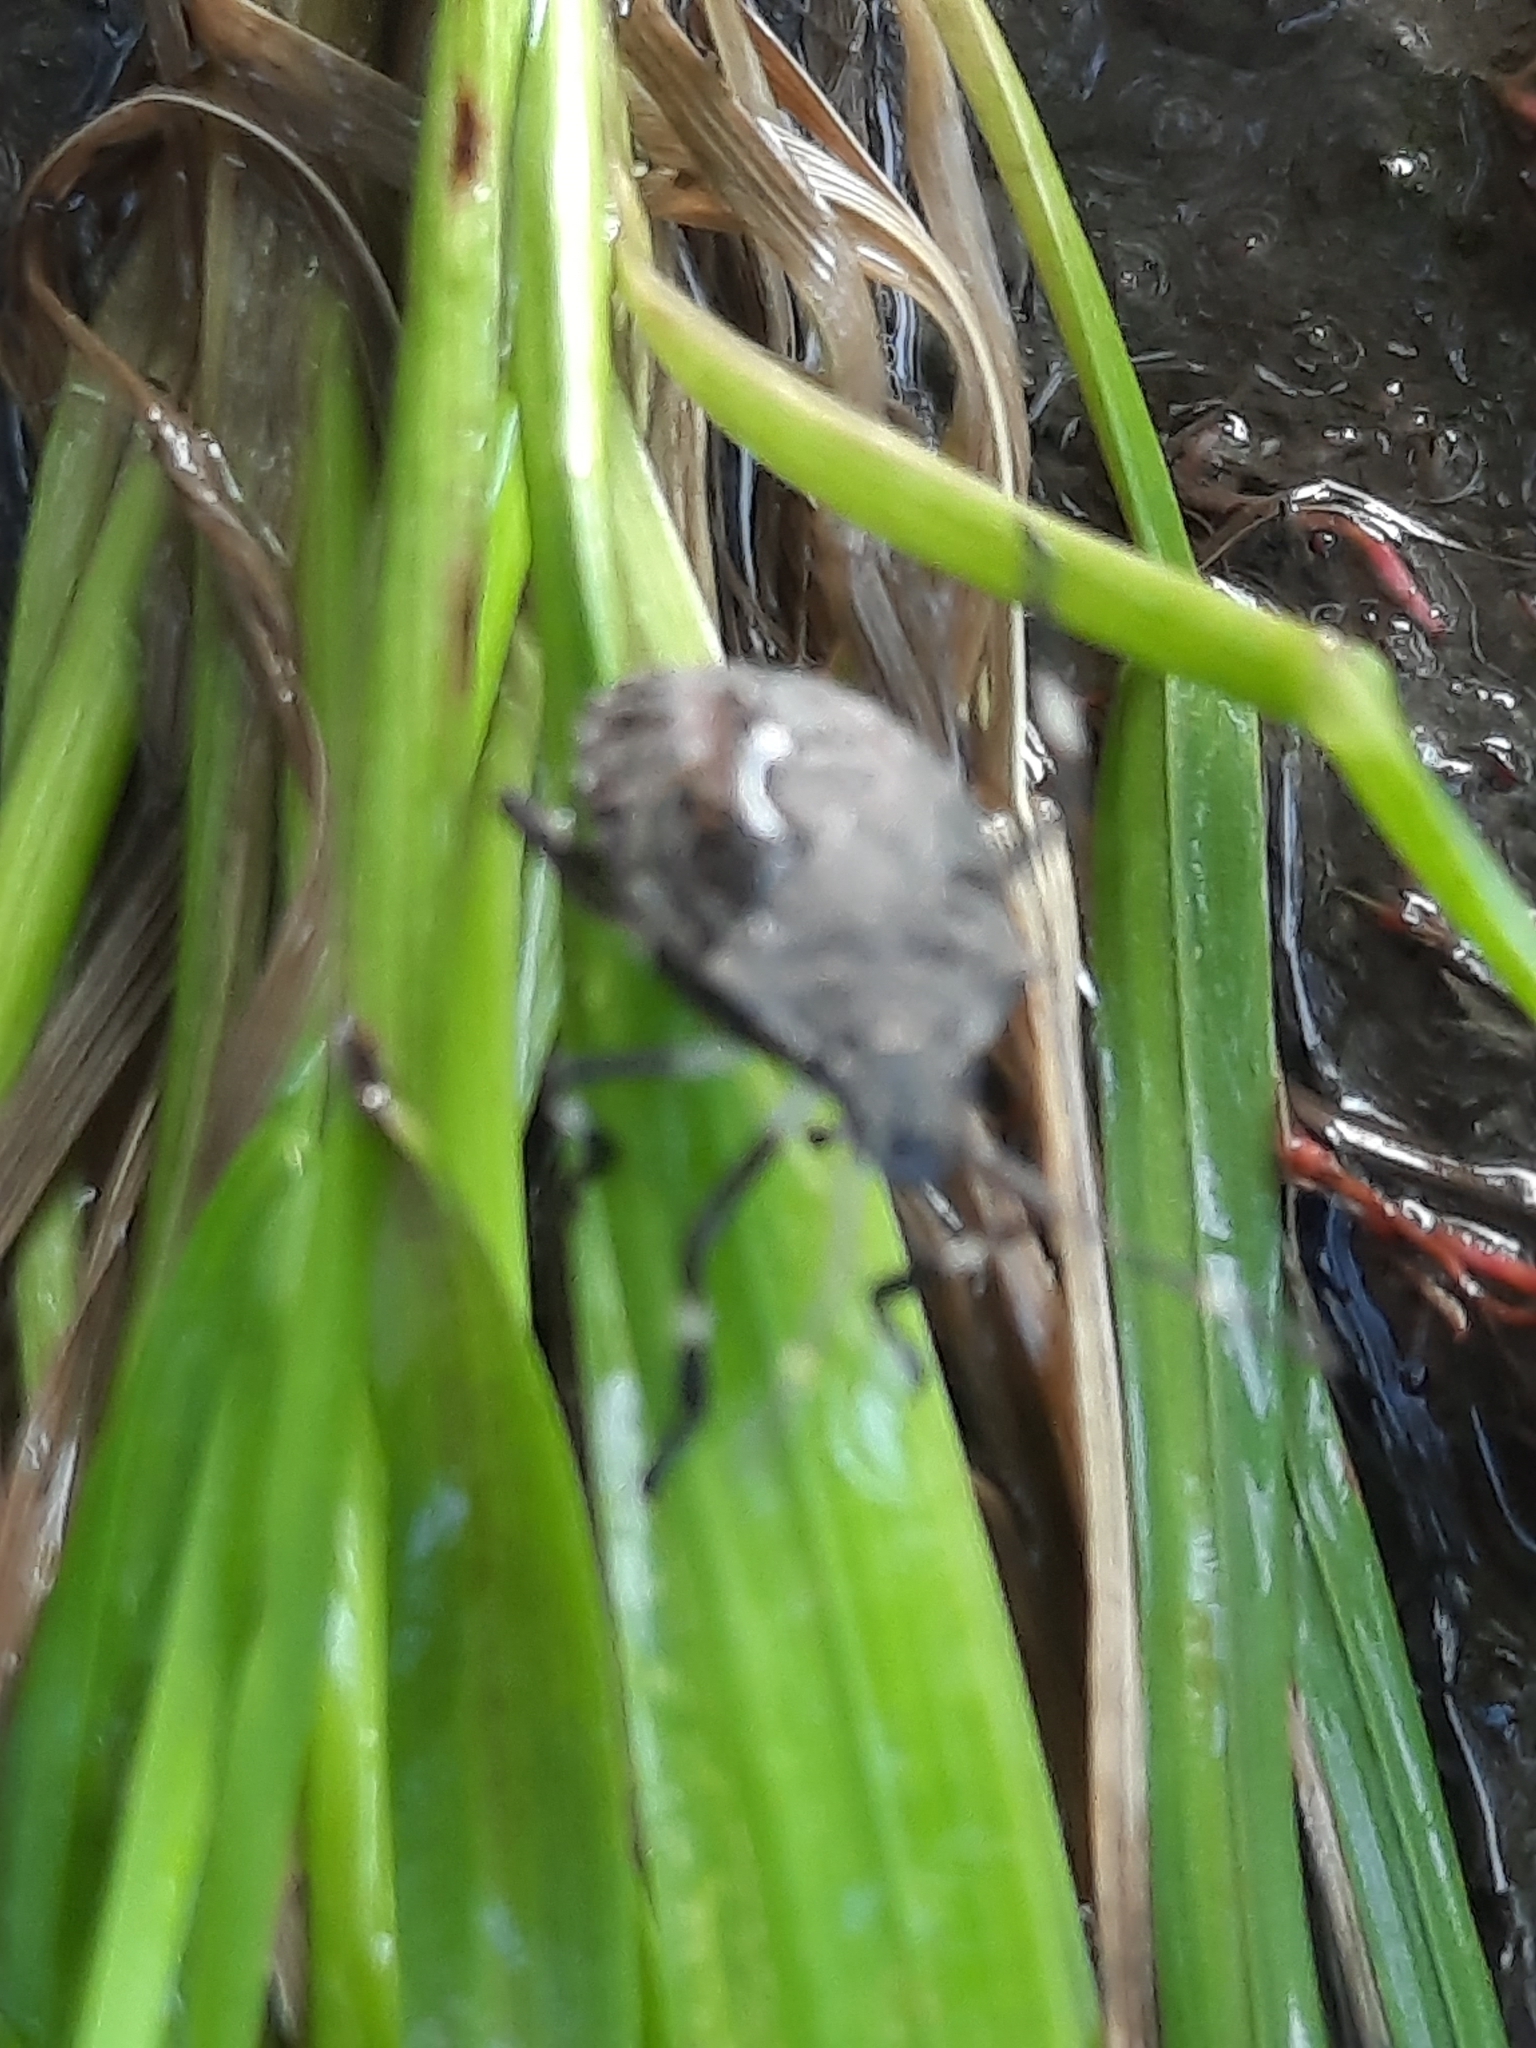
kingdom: Animalia
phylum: Arthropoda
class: Insecta
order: Hemiptera
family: Pentatomidae
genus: Halyomorpha
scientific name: Halyomorpha halys
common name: Brown marmorated stink bug
